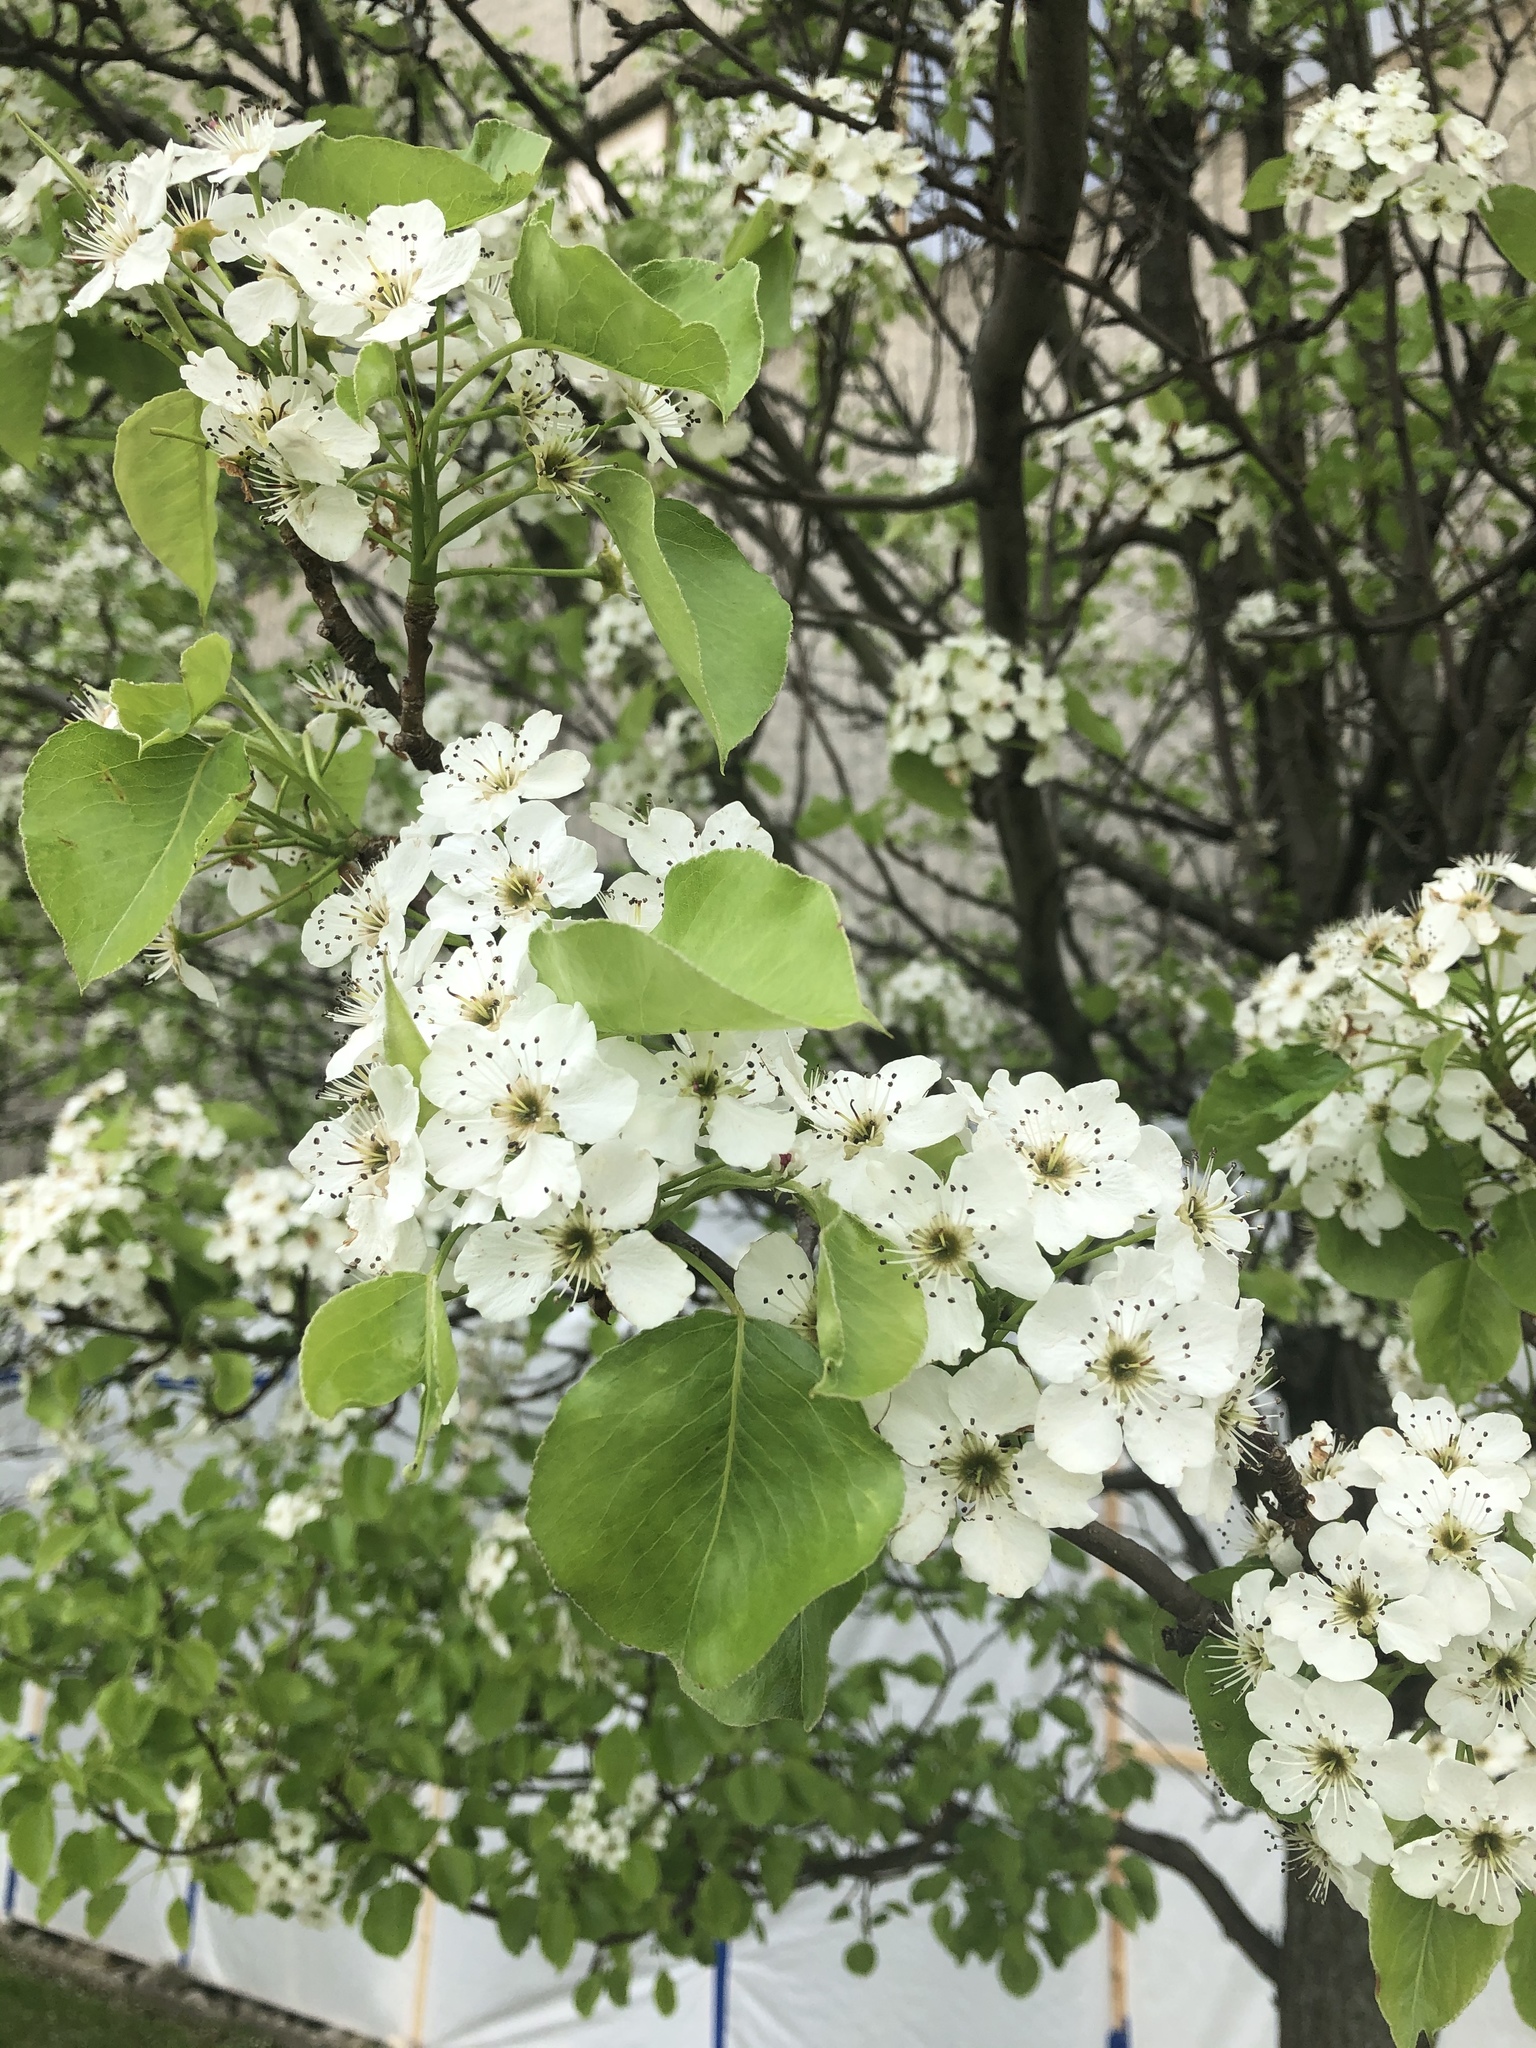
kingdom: Plantae
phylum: Tracheophyta
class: Magnoliopsida
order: Rosales
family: Rosaceae
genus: Pyrus
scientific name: Pyrus calleryana
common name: Callery pear
